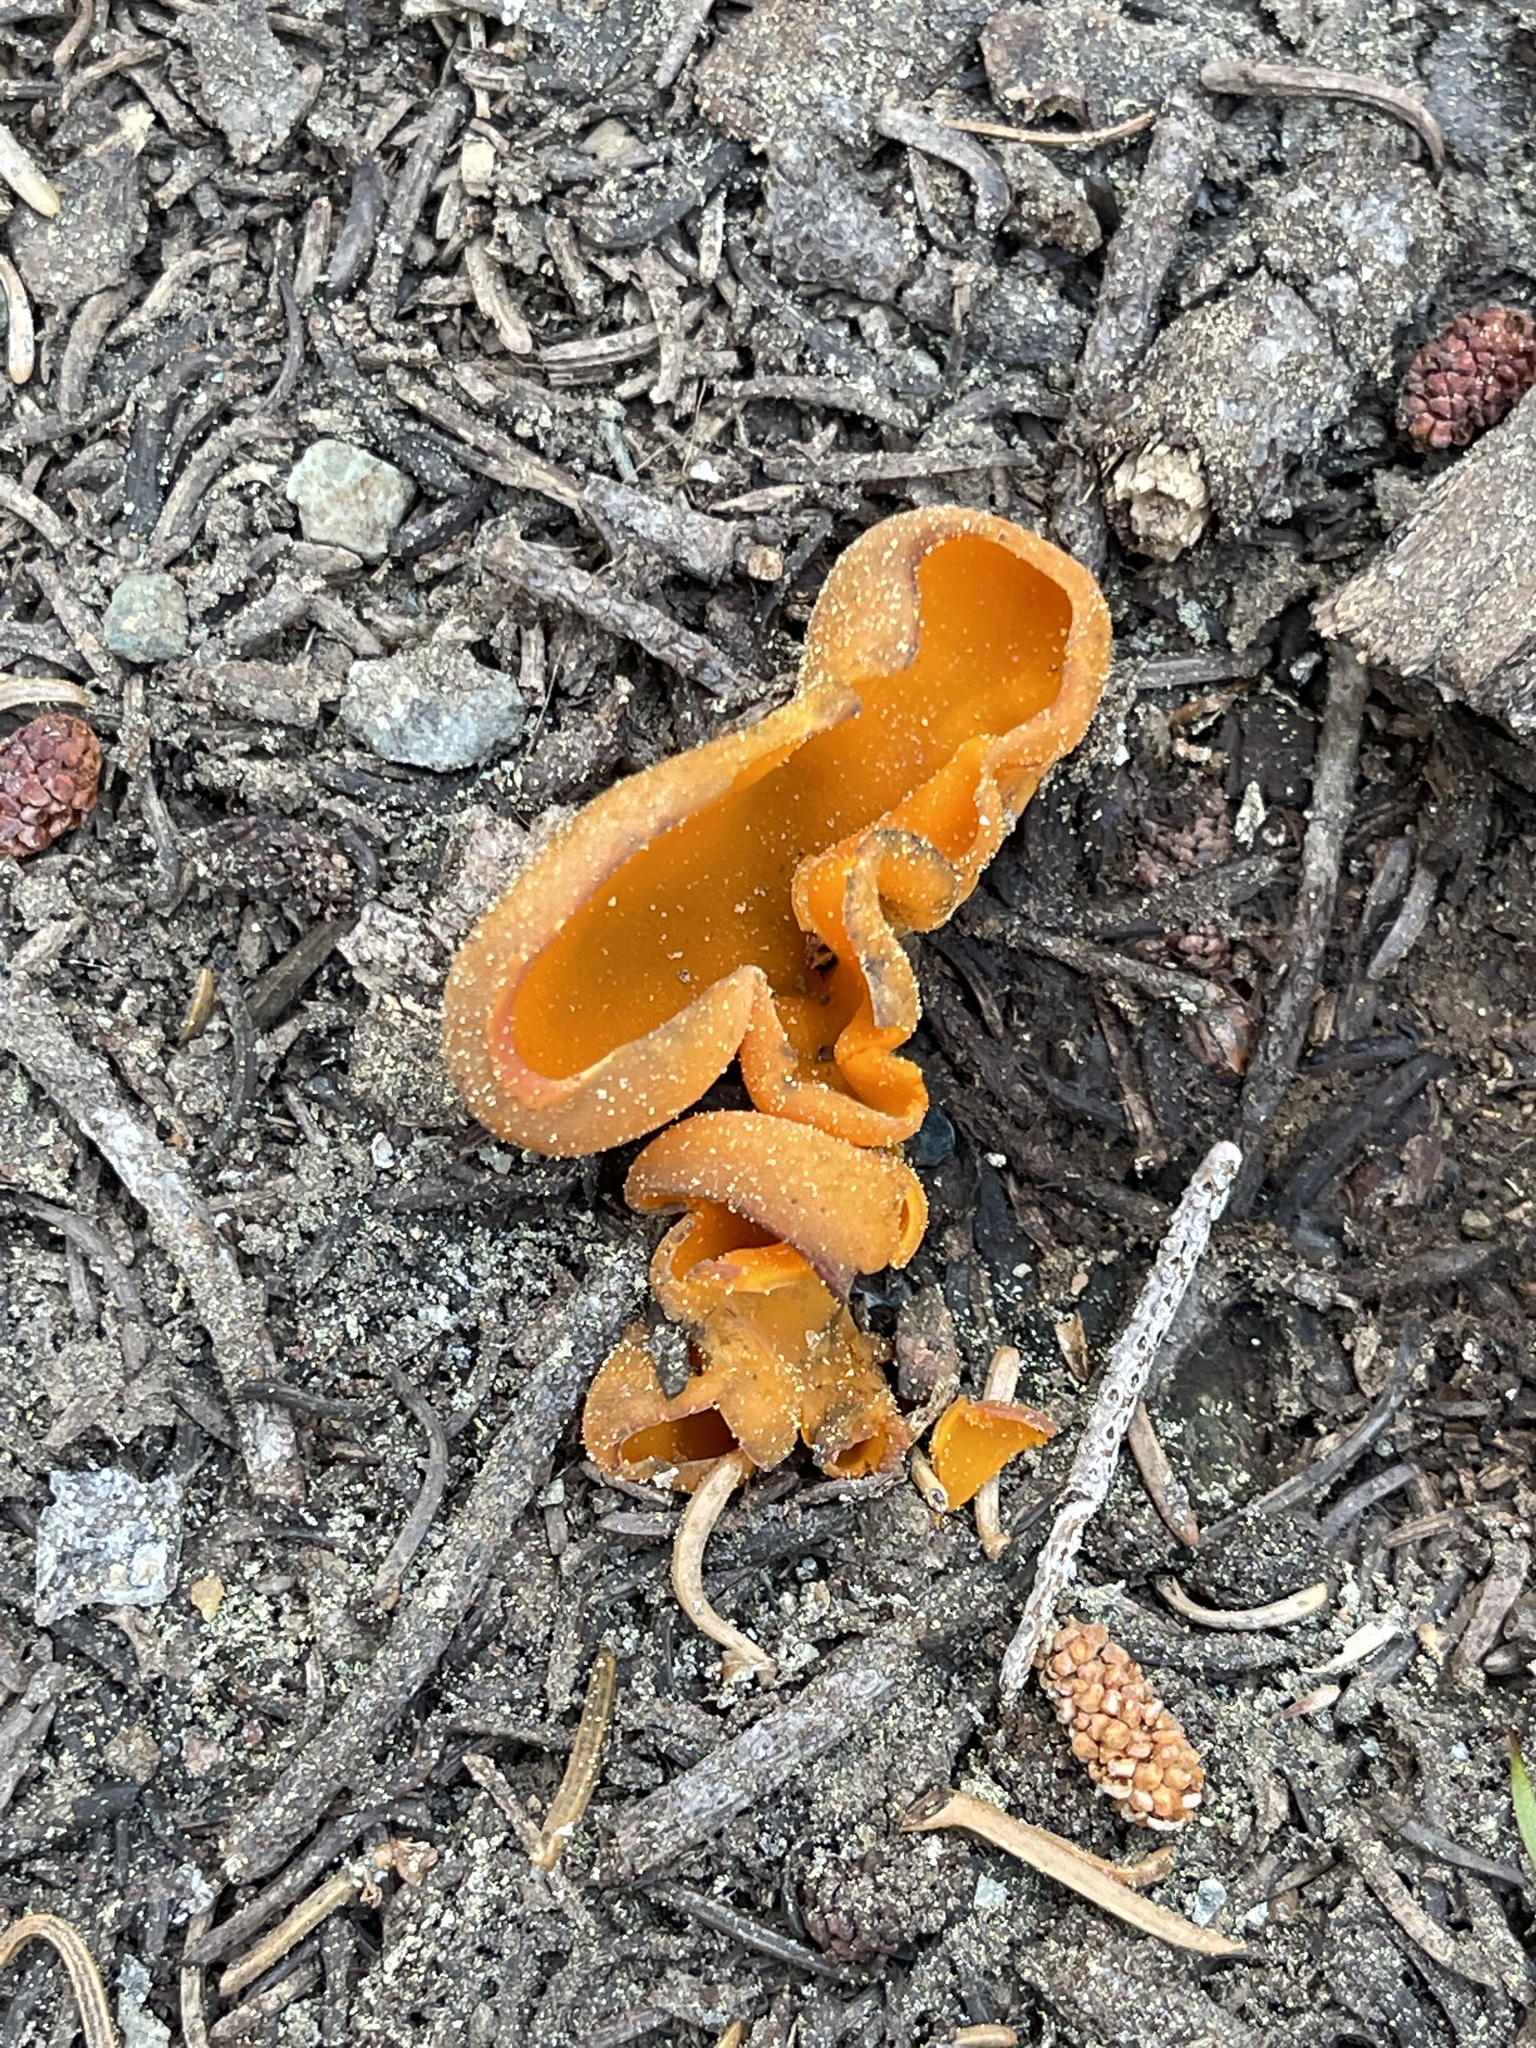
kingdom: Fungi
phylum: Ascomycota
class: Pezizomycetes
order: Pezizales
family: Caloscyphaceae
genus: Caloscypha
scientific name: Caloscypha fulgens
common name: Golden cup
